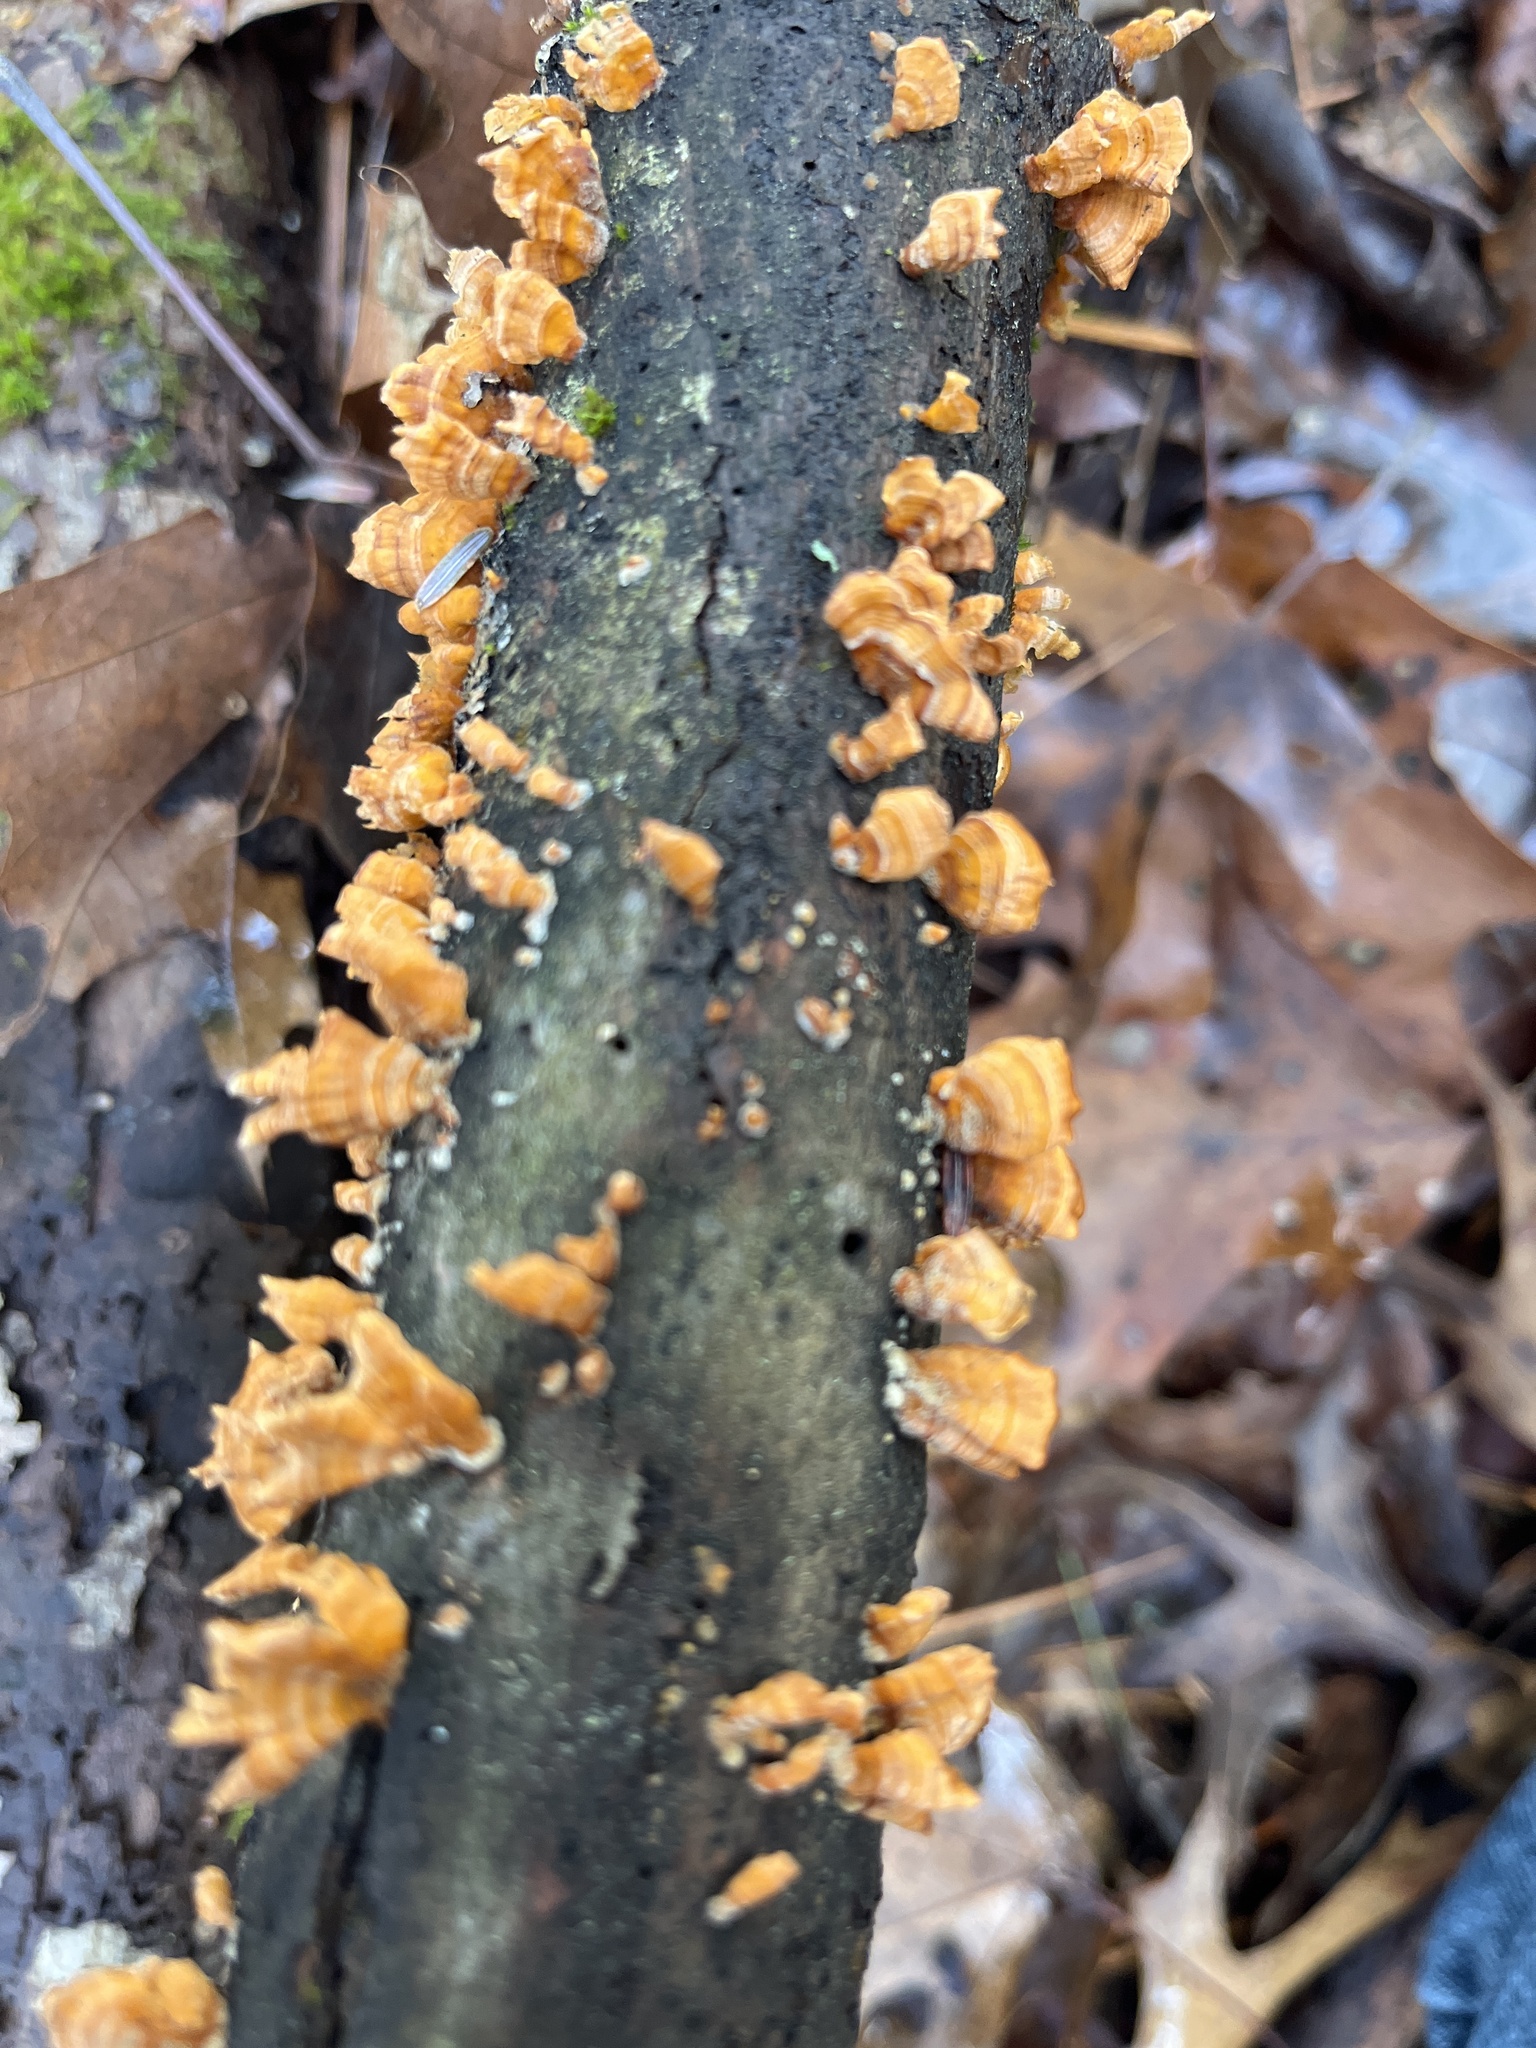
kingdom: Fungi
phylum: Basidiomycota
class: Agaricomycetes
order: Russulales
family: Stereaceae
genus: Stereum
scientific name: Stereum complicatum
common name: Crowded parchment
